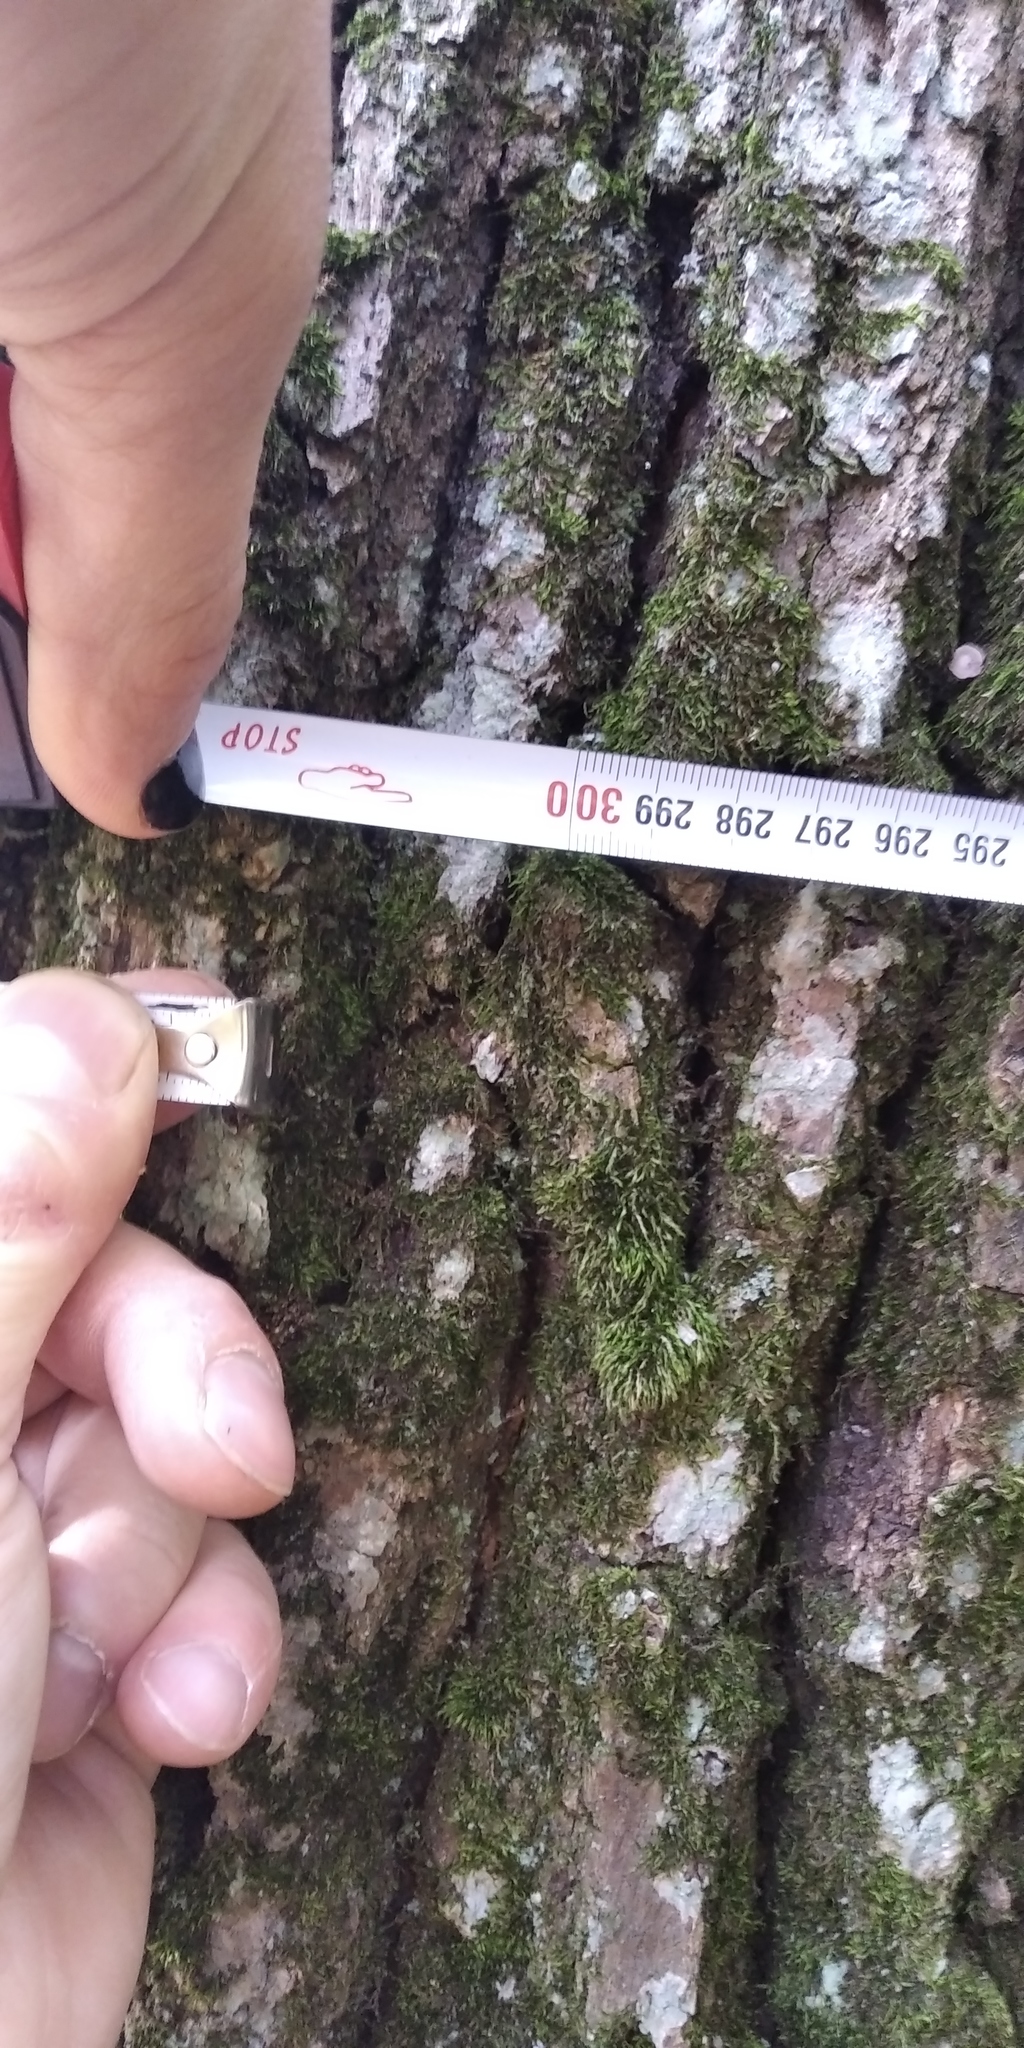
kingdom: Plantae
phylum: Tracheophyta
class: Magnoliopsida
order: Fagales
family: Fagaceae
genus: Quercus
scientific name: Quercus robur
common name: Pedunculate oak
